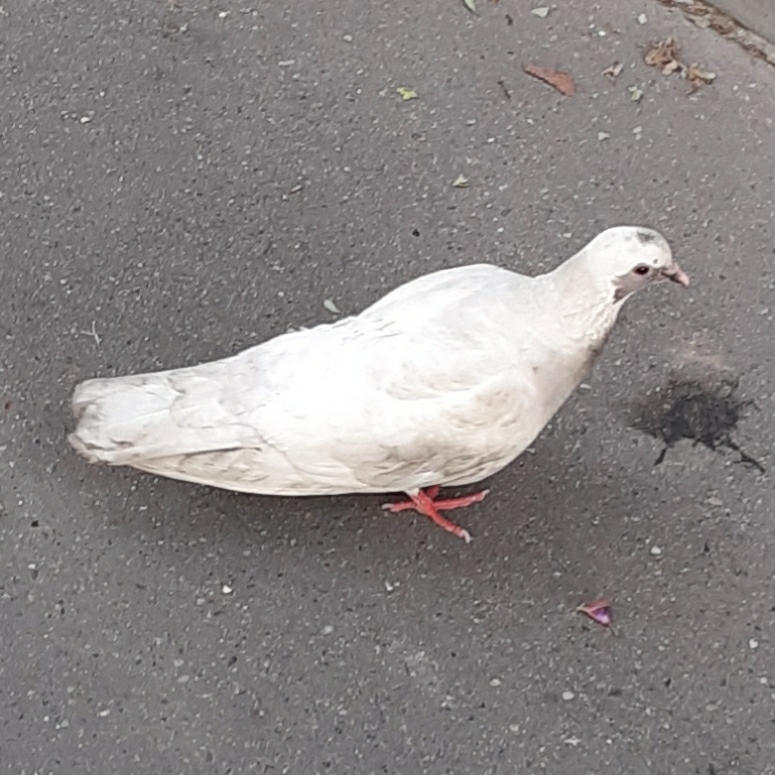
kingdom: Animalia
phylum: Chordata
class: Aves
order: Columbiformes
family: Columbidae
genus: Columba
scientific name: Columba livia
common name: Rock pigeon
